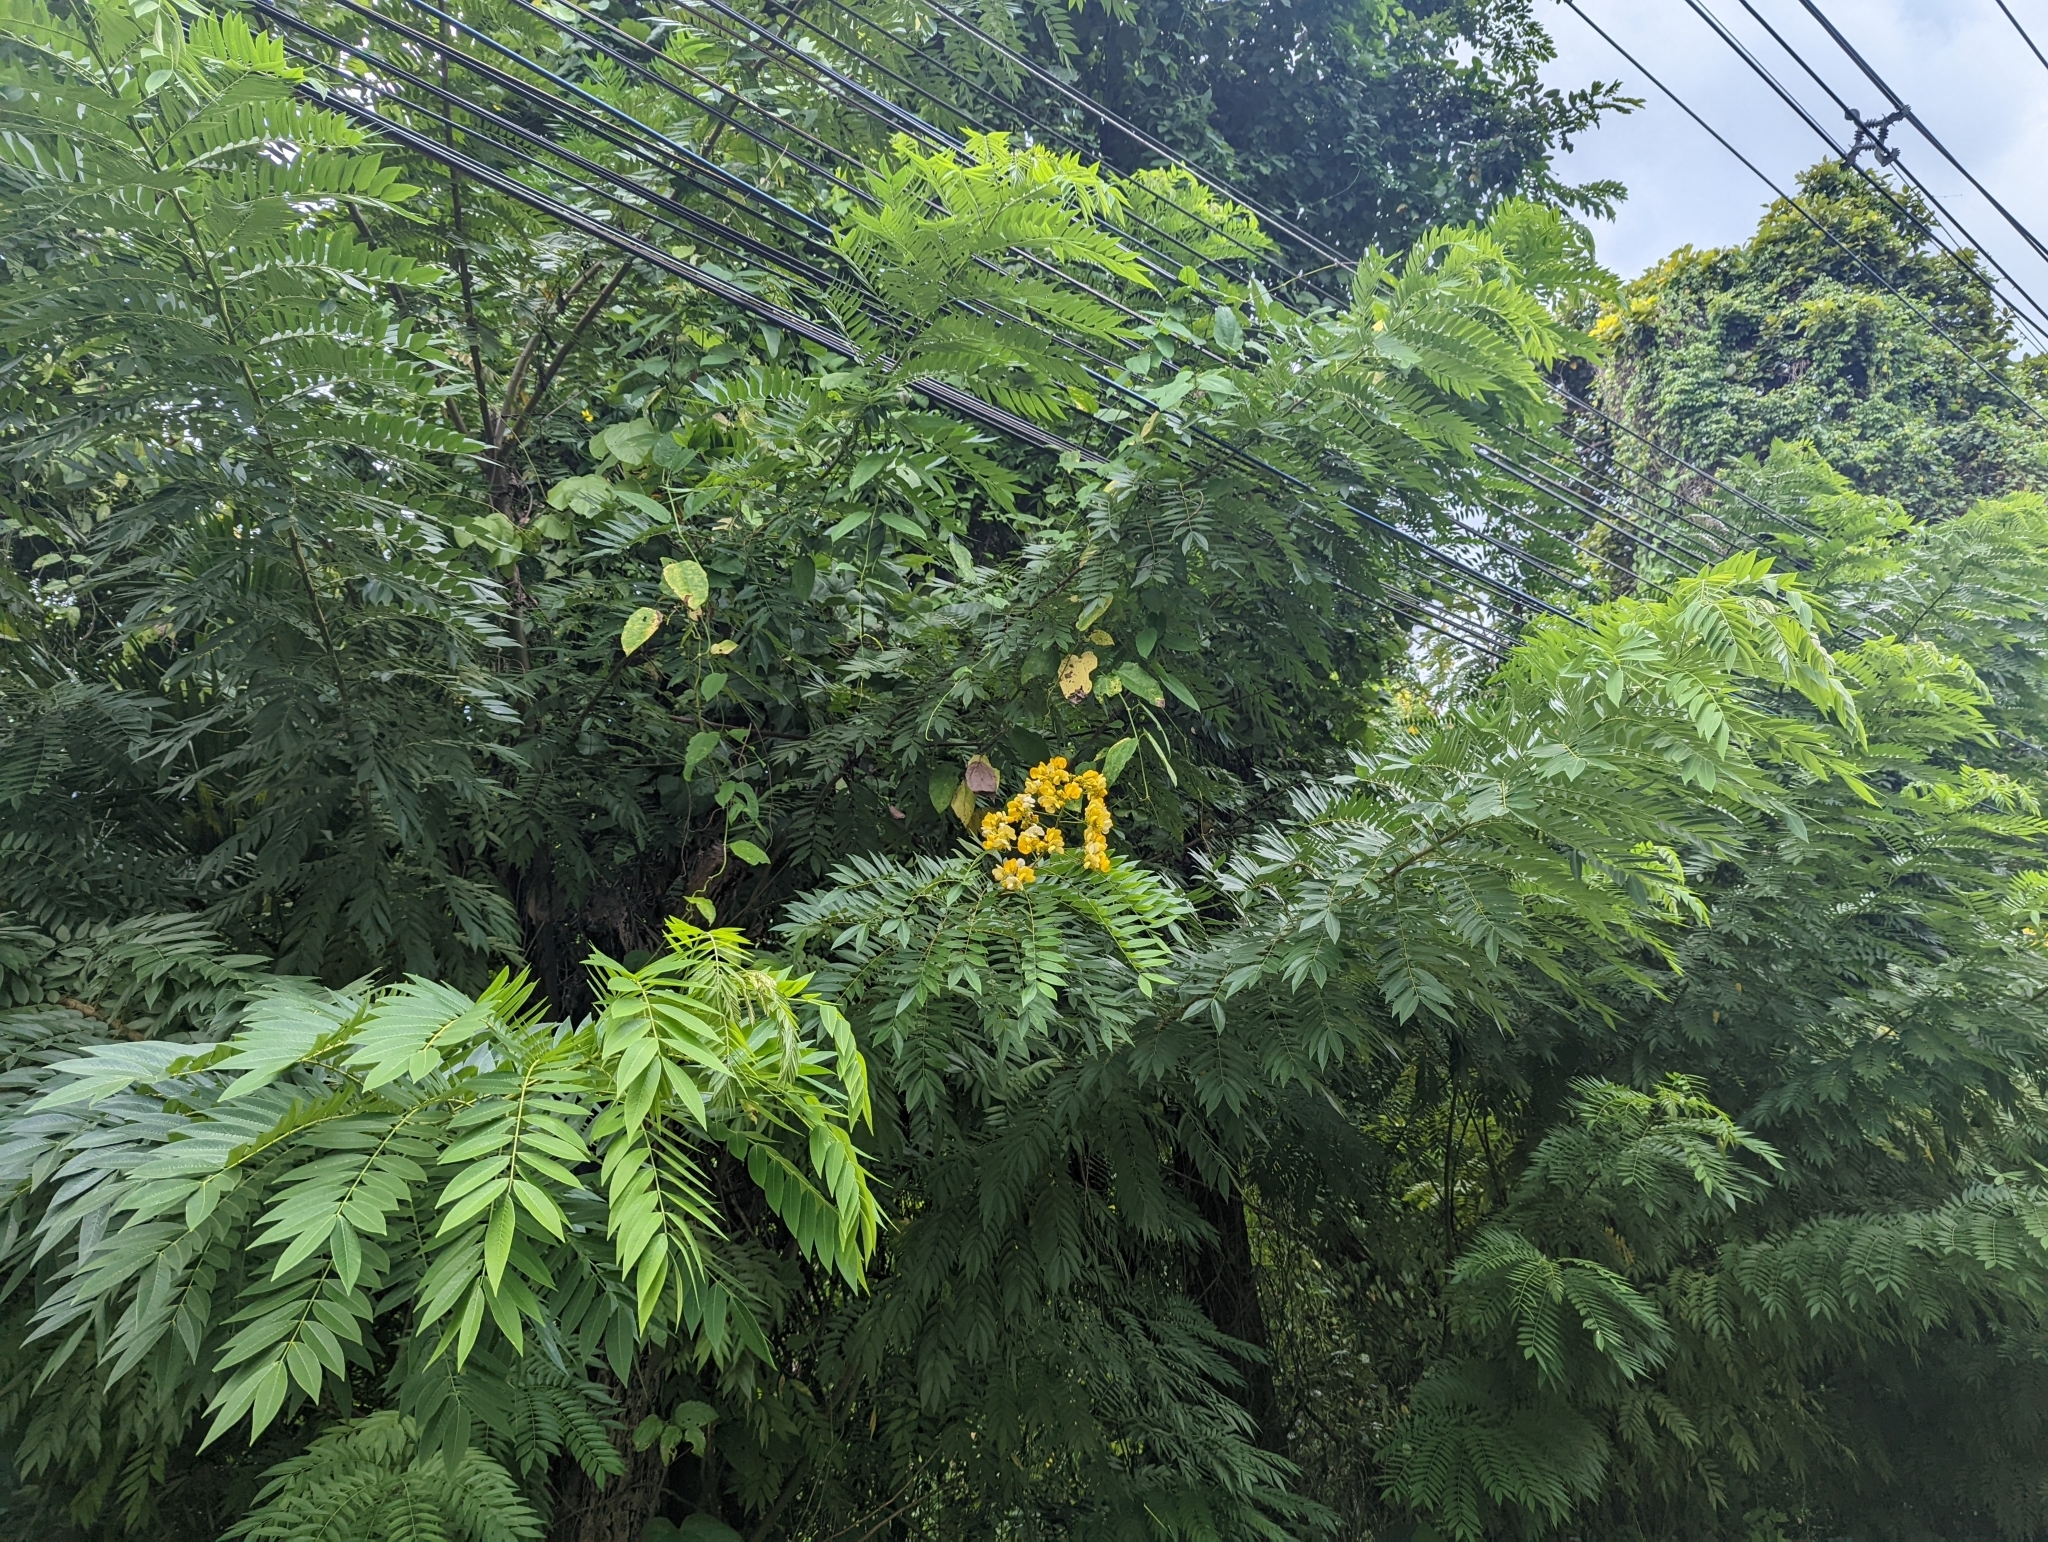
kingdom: Plantae
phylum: Tracheophyta
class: Magnoliopsida
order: Fabales
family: Fabaceae
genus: Senna
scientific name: Senna spectabilis
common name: Casia amarilla
